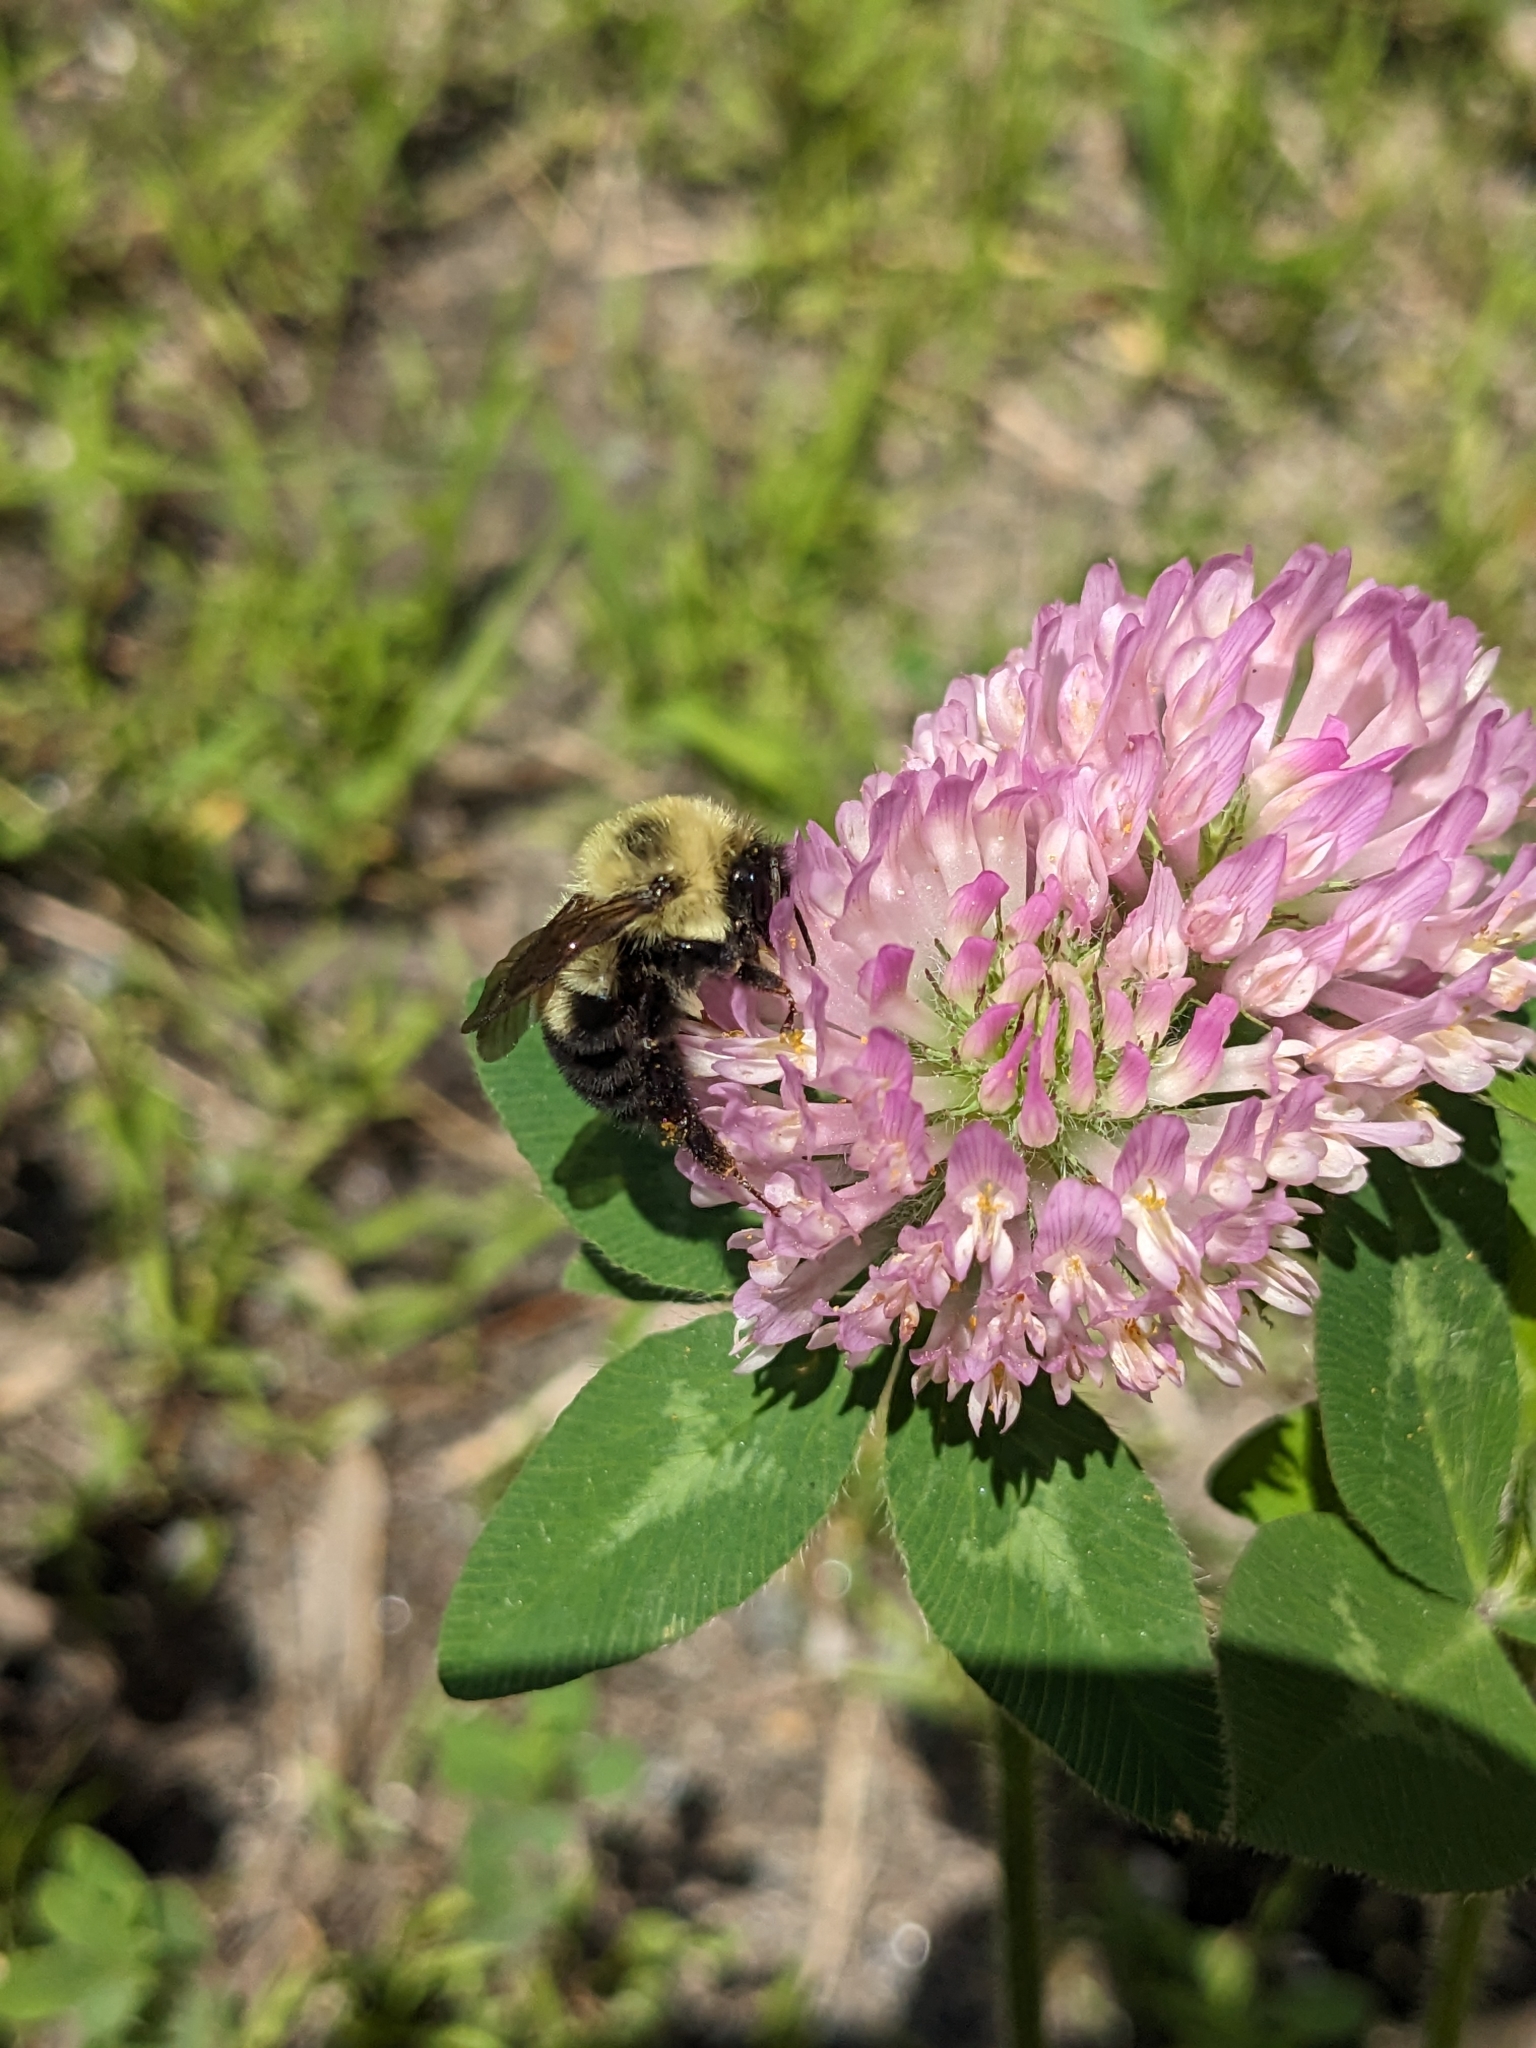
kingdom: Animalia
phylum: Arthropoda
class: Insecta
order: Hymenoptera
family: Apidae
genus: Bombus
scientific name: Bombus bimaculatus
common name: Two-spotted bumble bee
